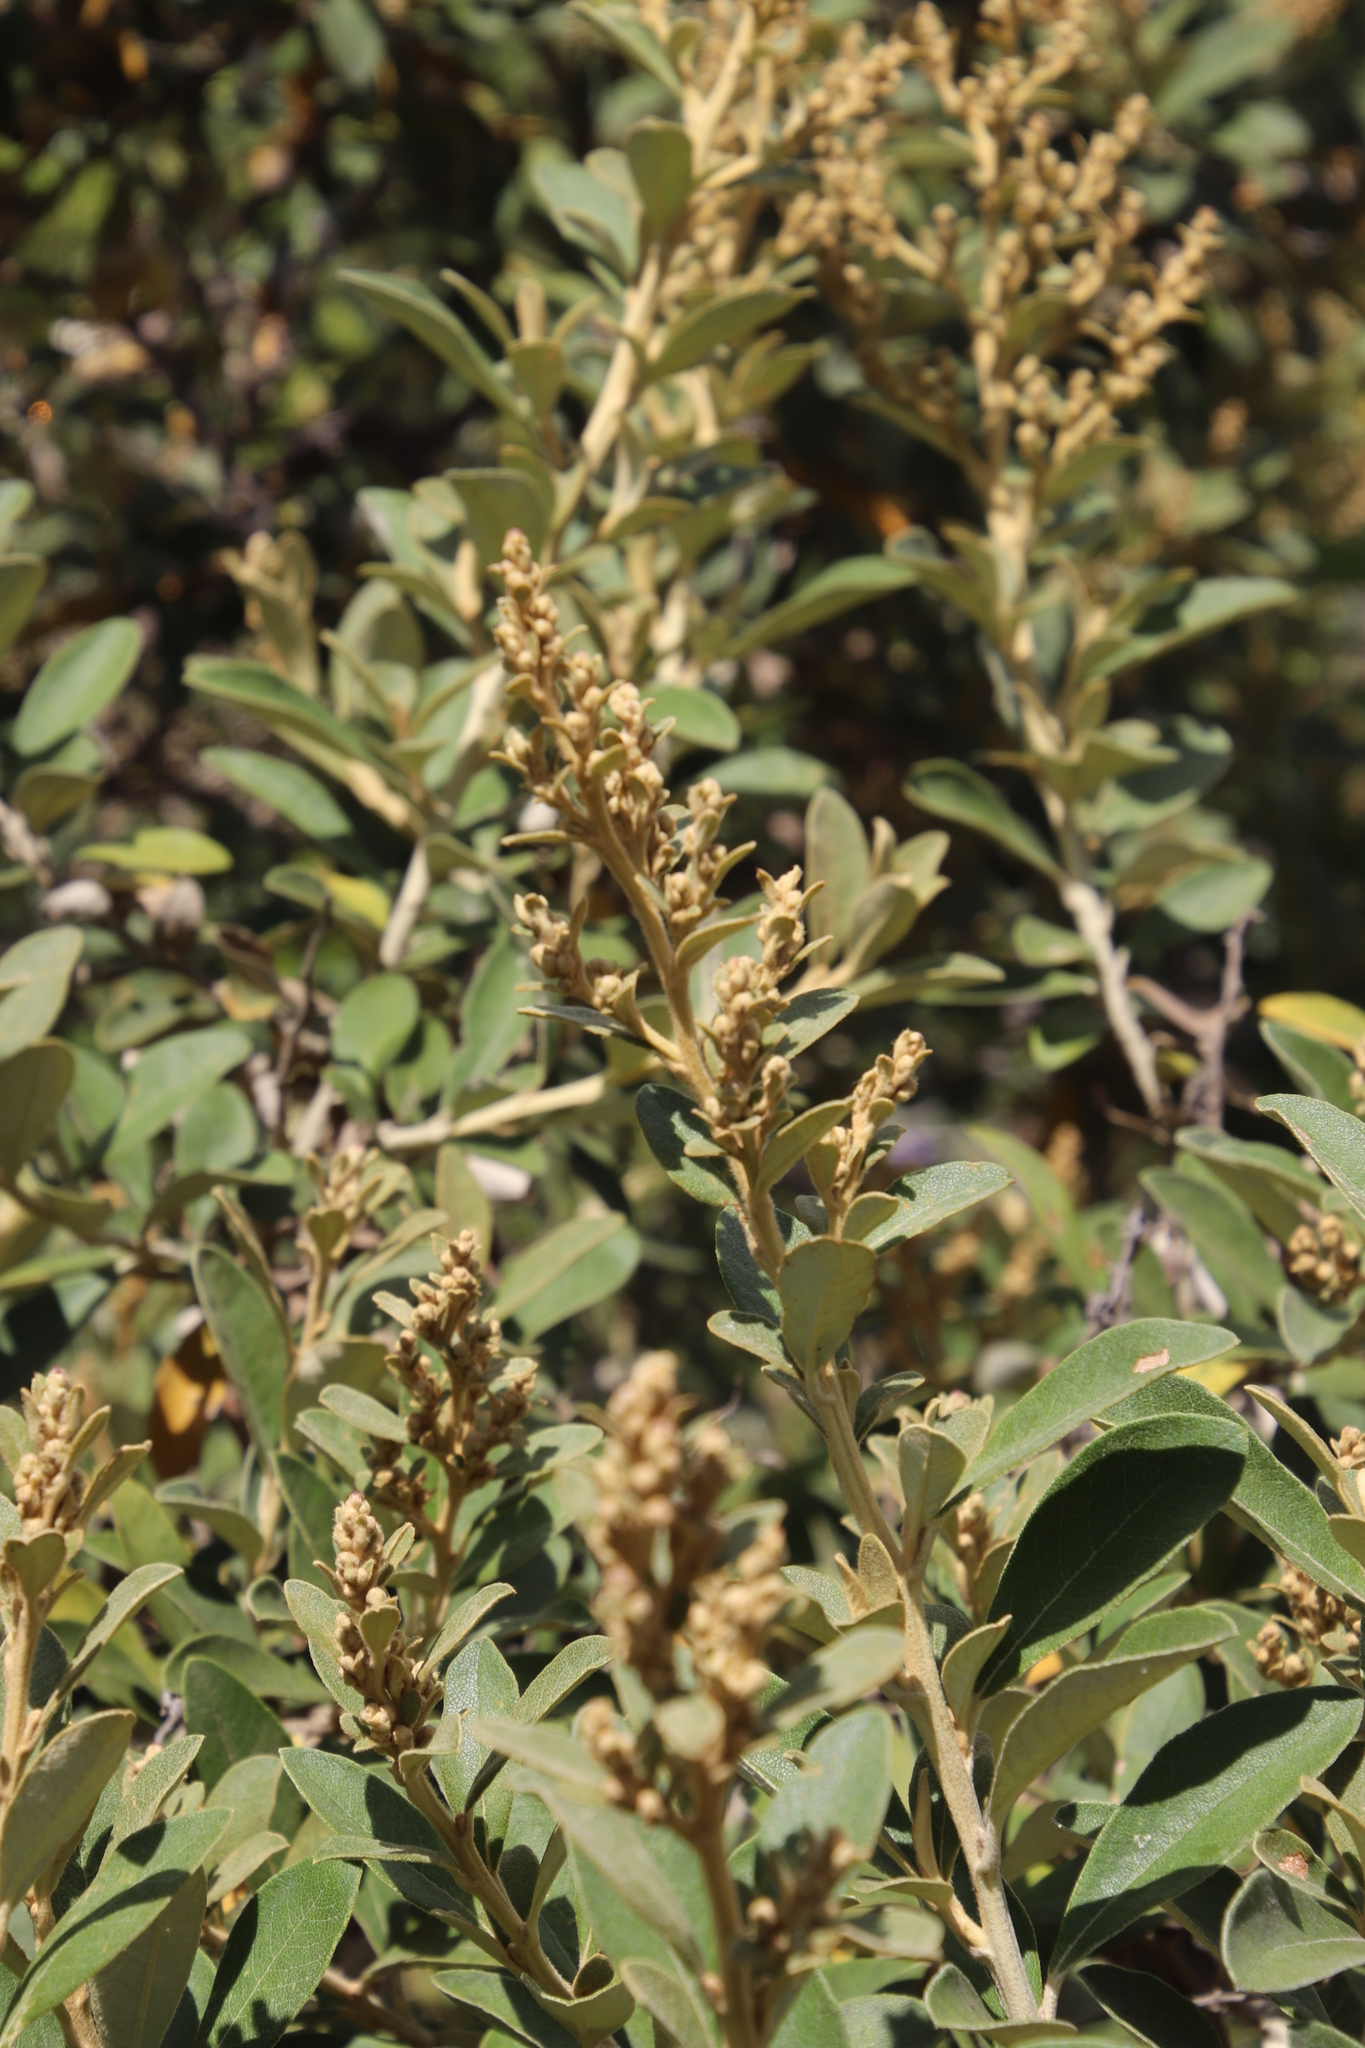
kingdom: Plantae
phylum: Tracheophyta
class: Magnoliopsida
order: Asterales
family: Asteraceae
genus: Tarchonanthus
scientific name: Tarchonanthus littoralis
